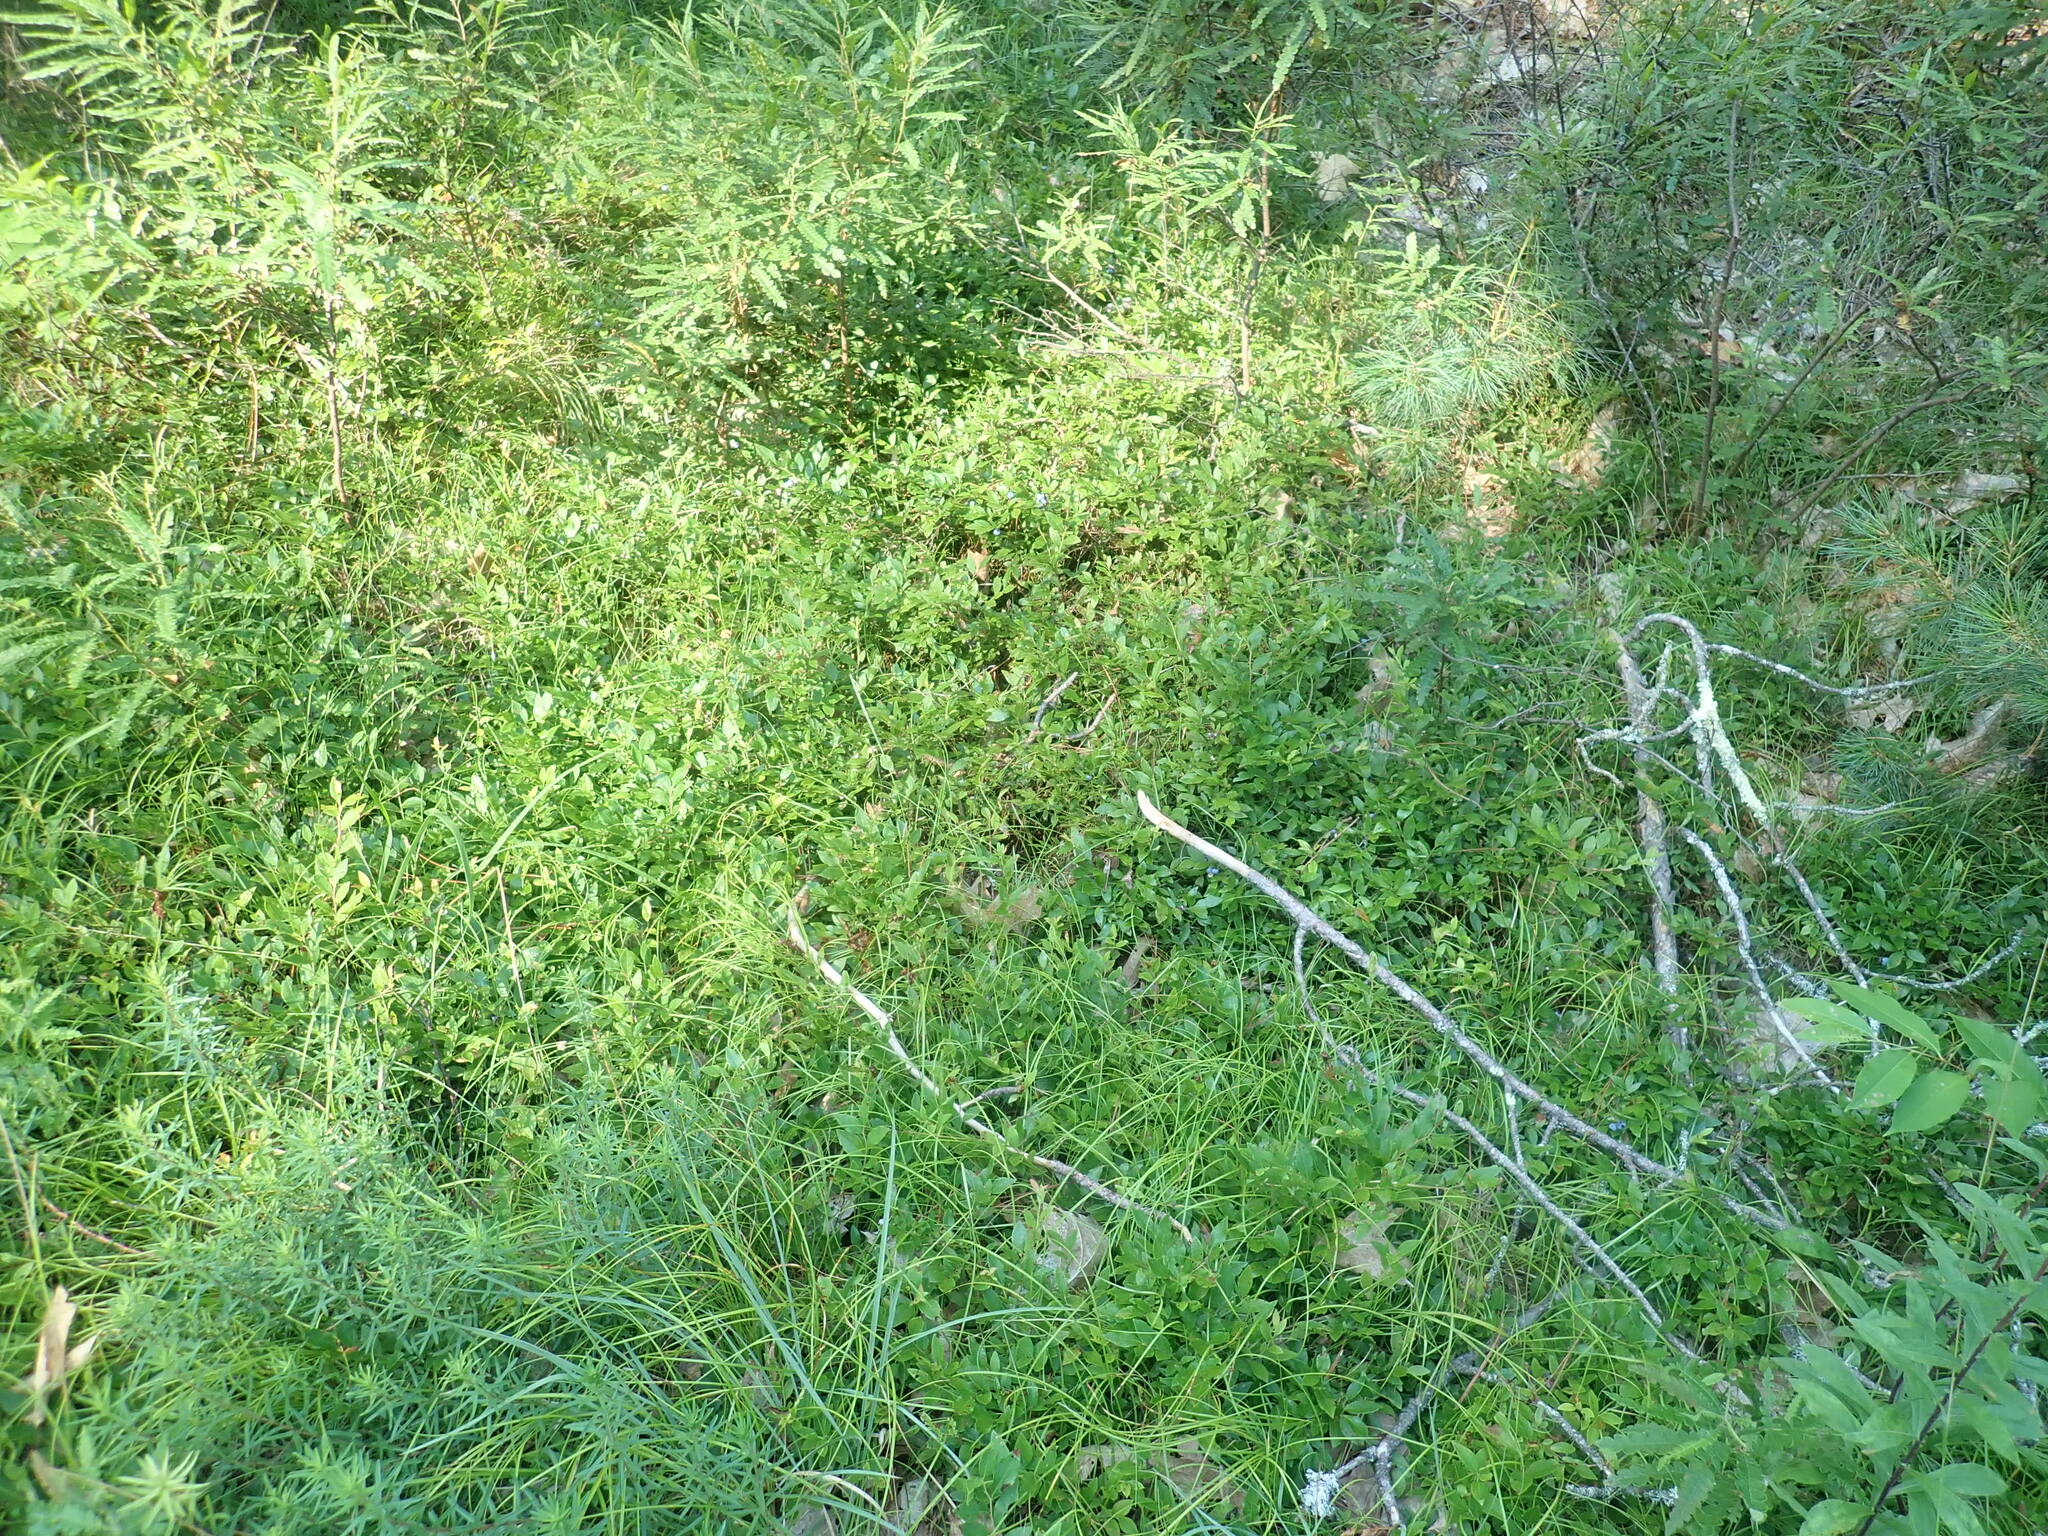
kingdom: Plantae
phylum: Tracheophyta
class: Magnoliopsida
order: Ericales
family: Ericaceae
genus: Vaccinium
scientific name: Vaccinium angustifolium
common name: Early lowbush blueberry
